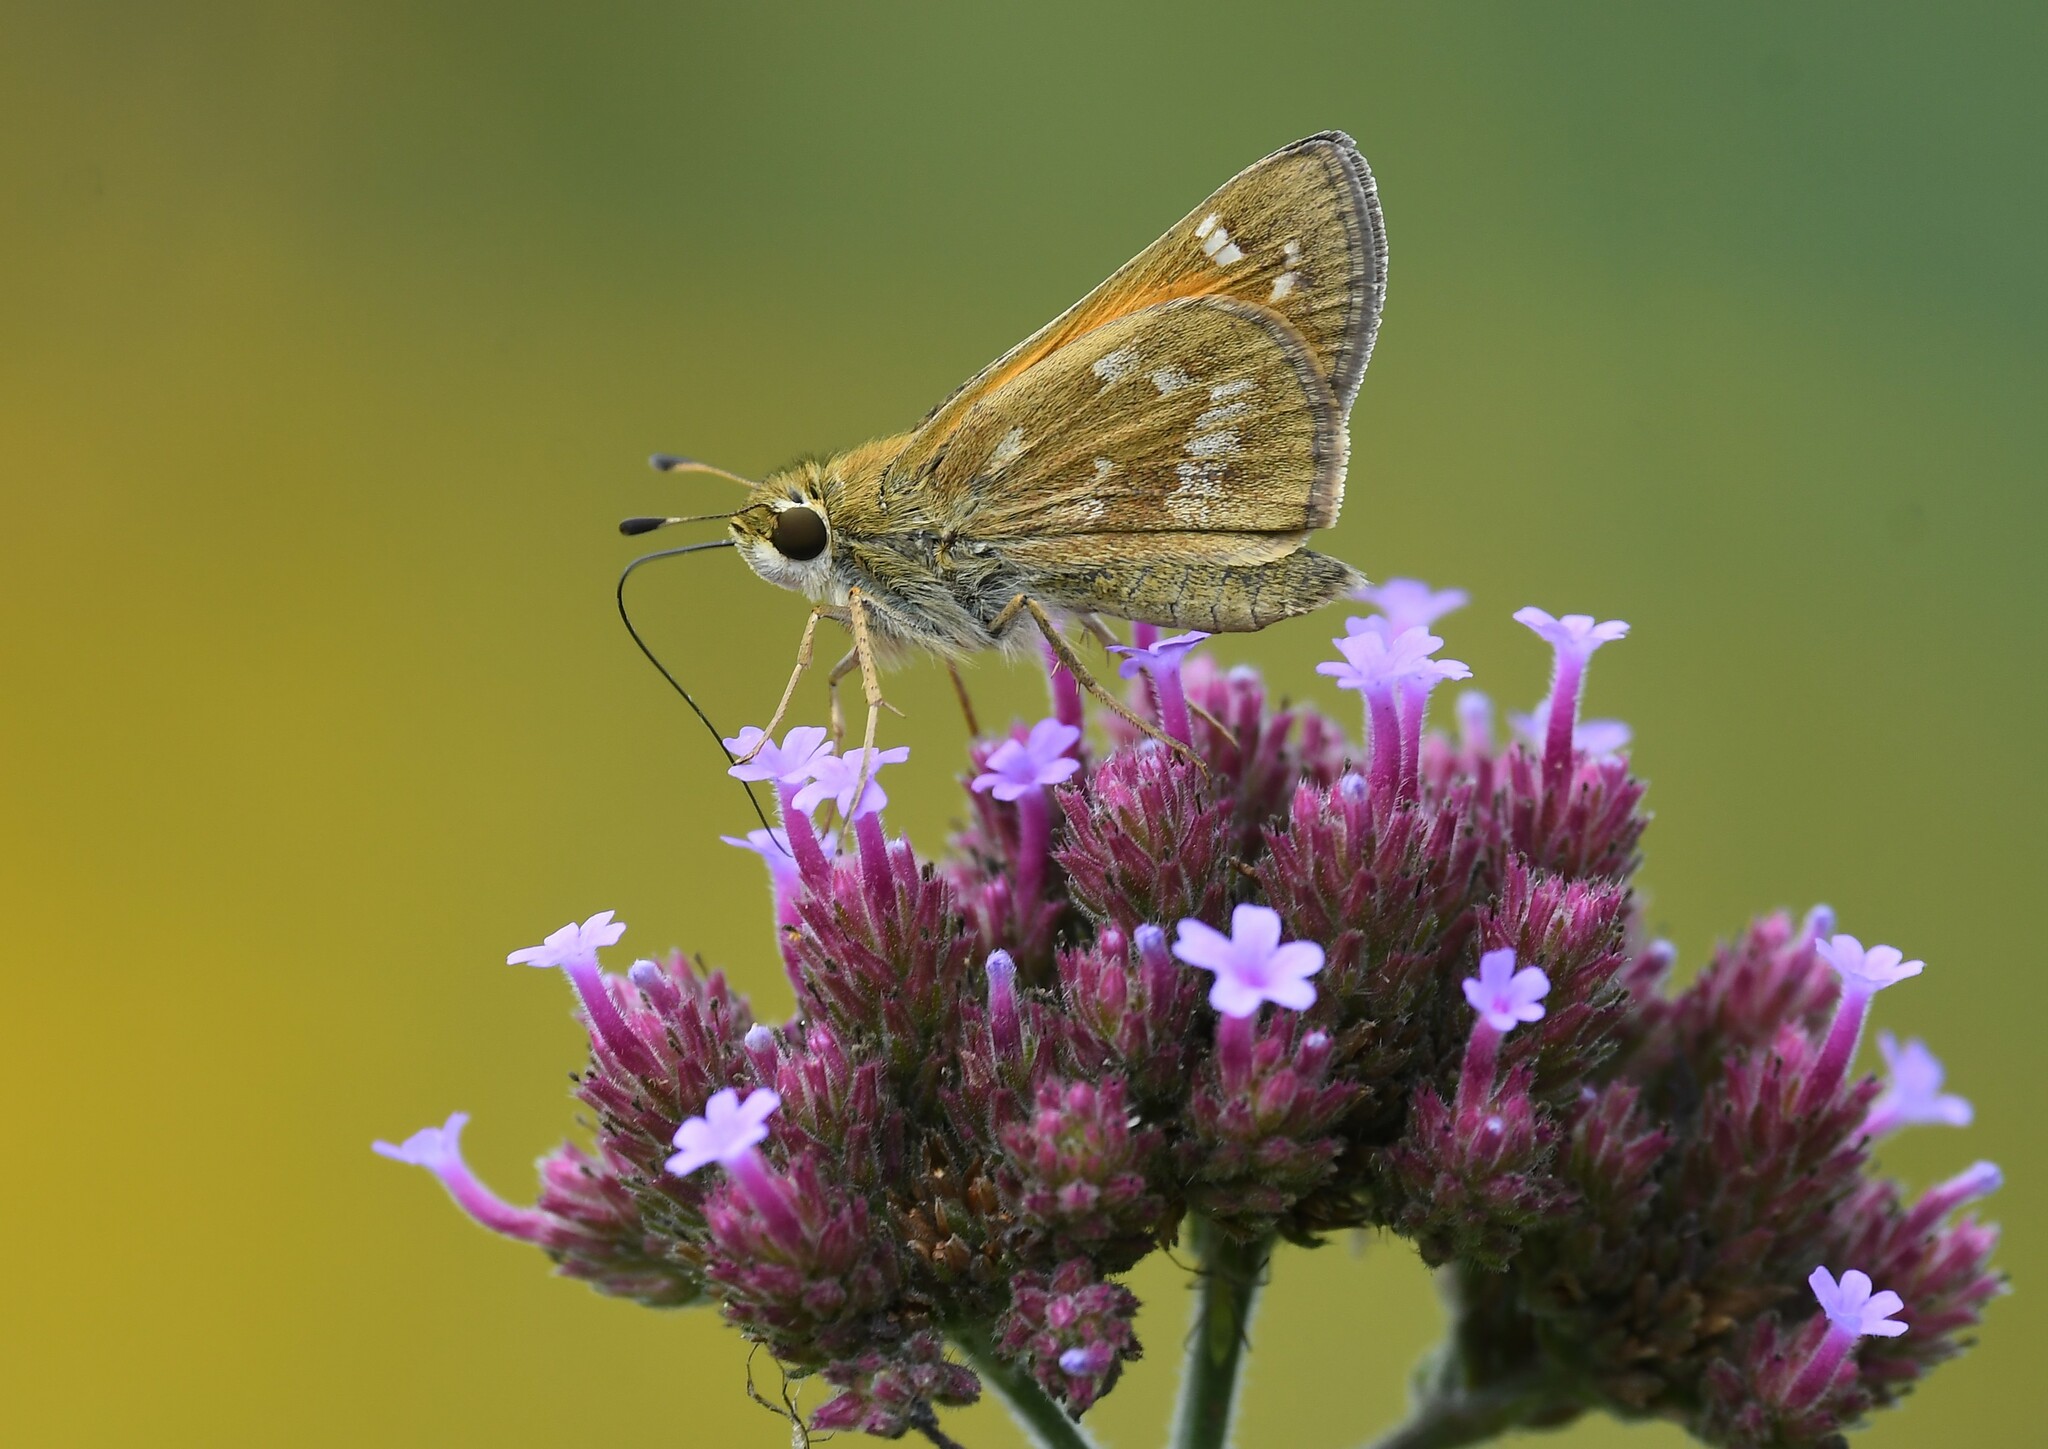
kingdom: Animalia
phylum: Arthropoda
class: Insecta
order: Lepidoptera
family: Hesperiidae
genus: Atalopedes
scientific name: Atalopedes
